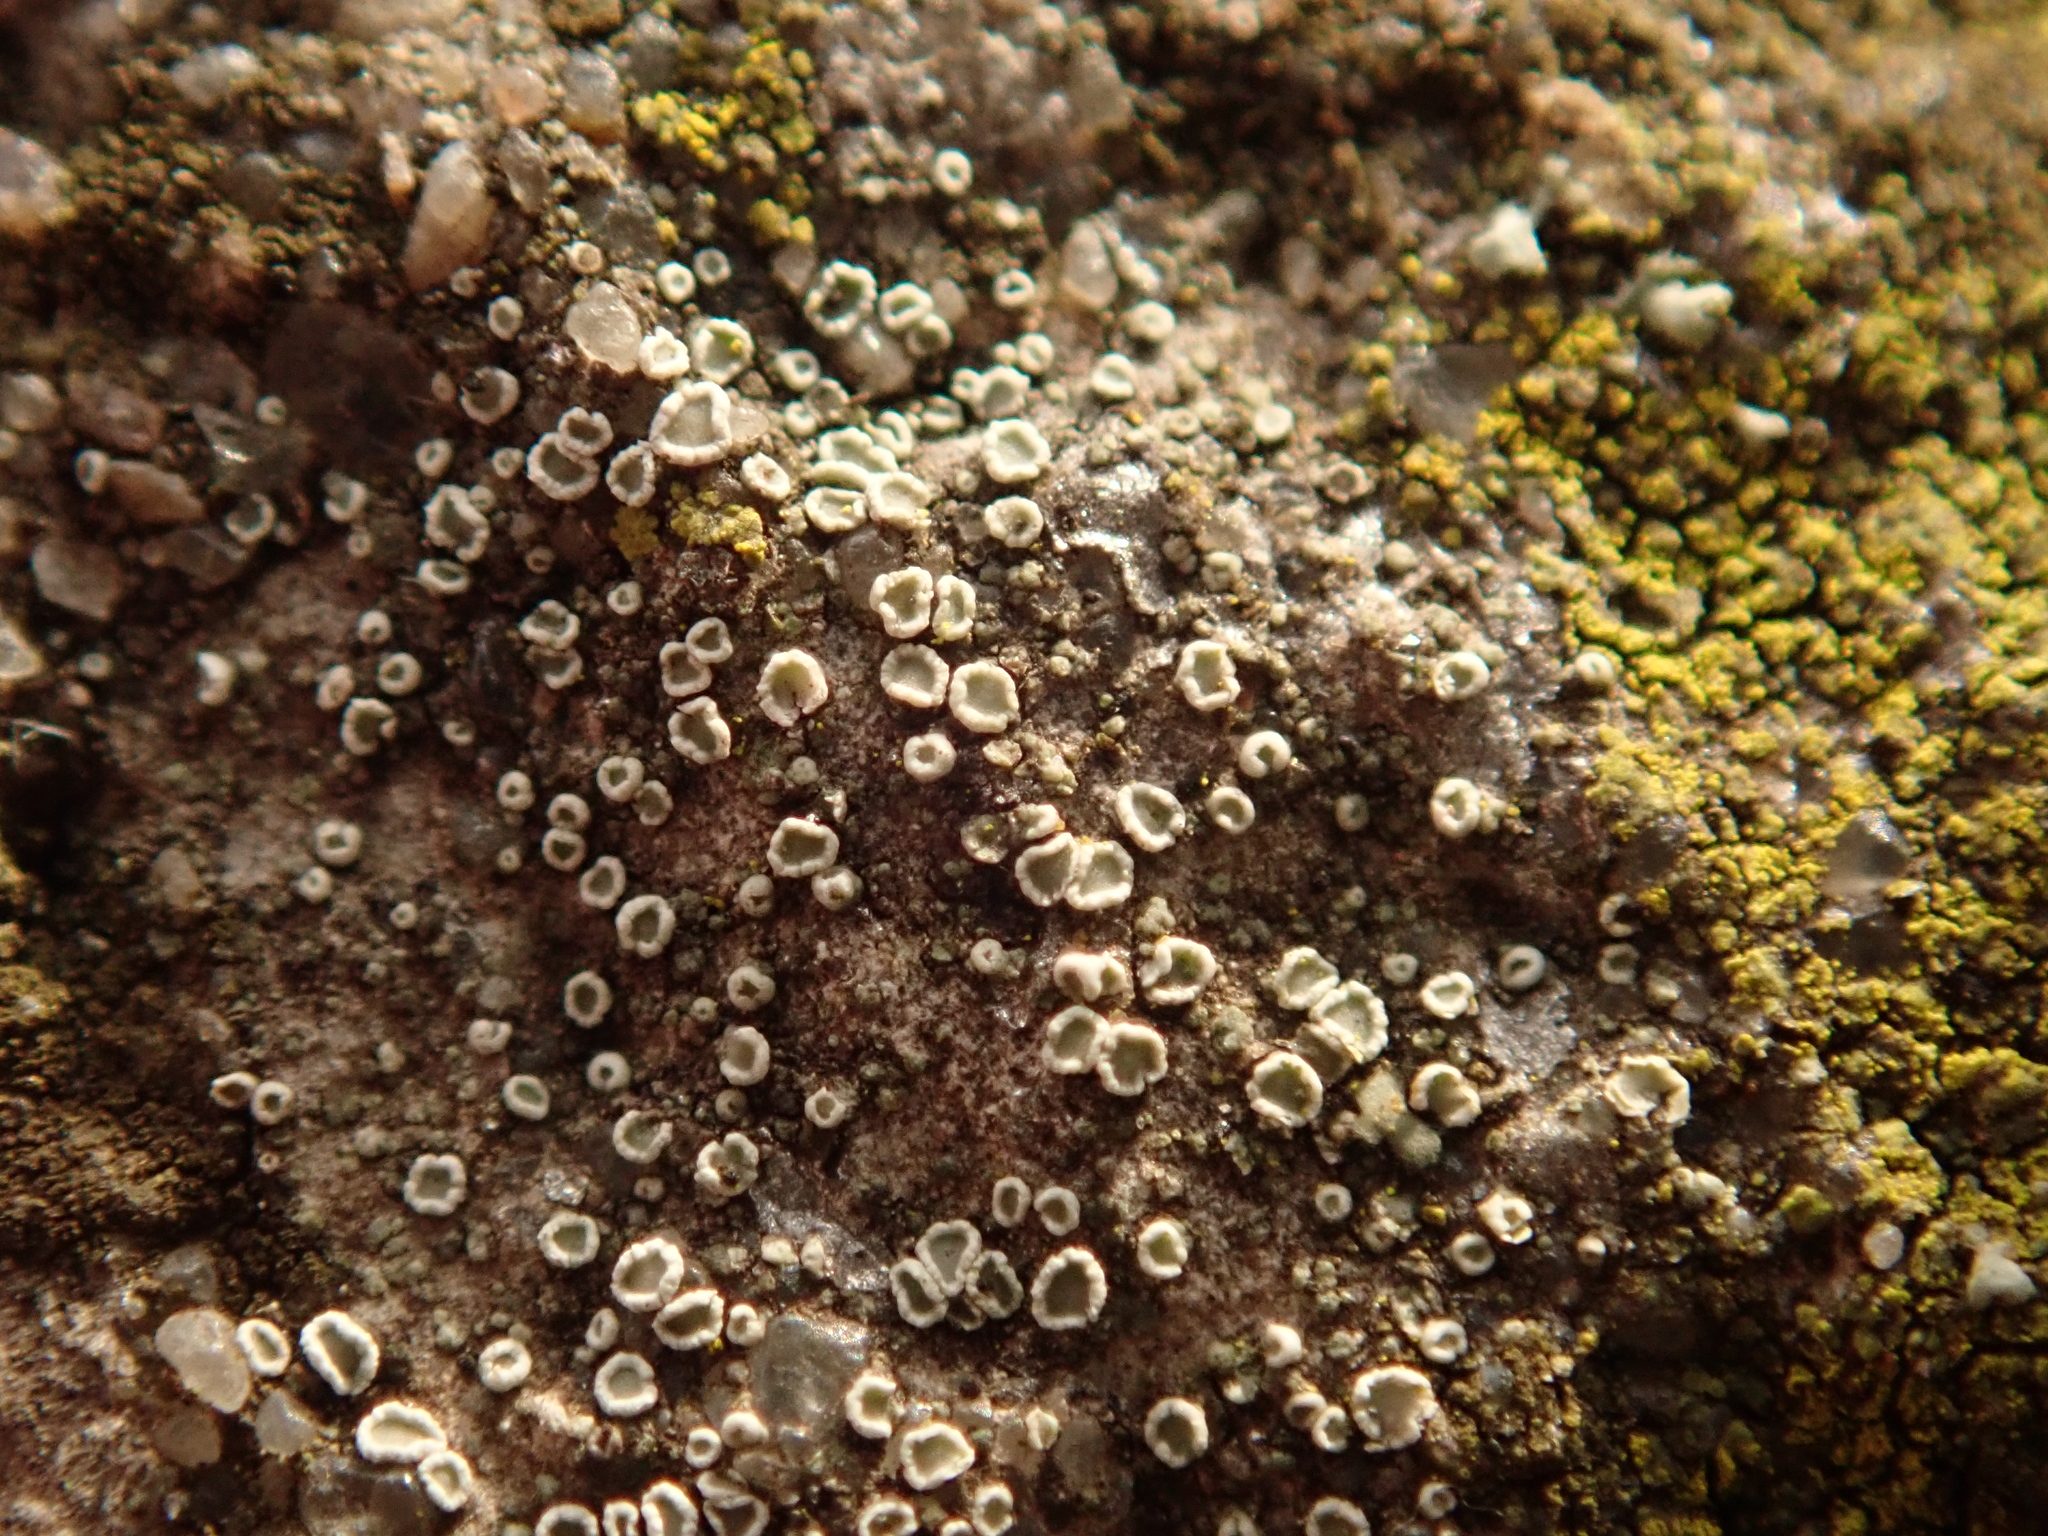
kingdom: Fungi
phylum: Ascomycota
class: Lecanoromycetes
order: Lecanorales
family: Lecanoraceae
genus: Myriolecis
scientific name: Myriolecis
